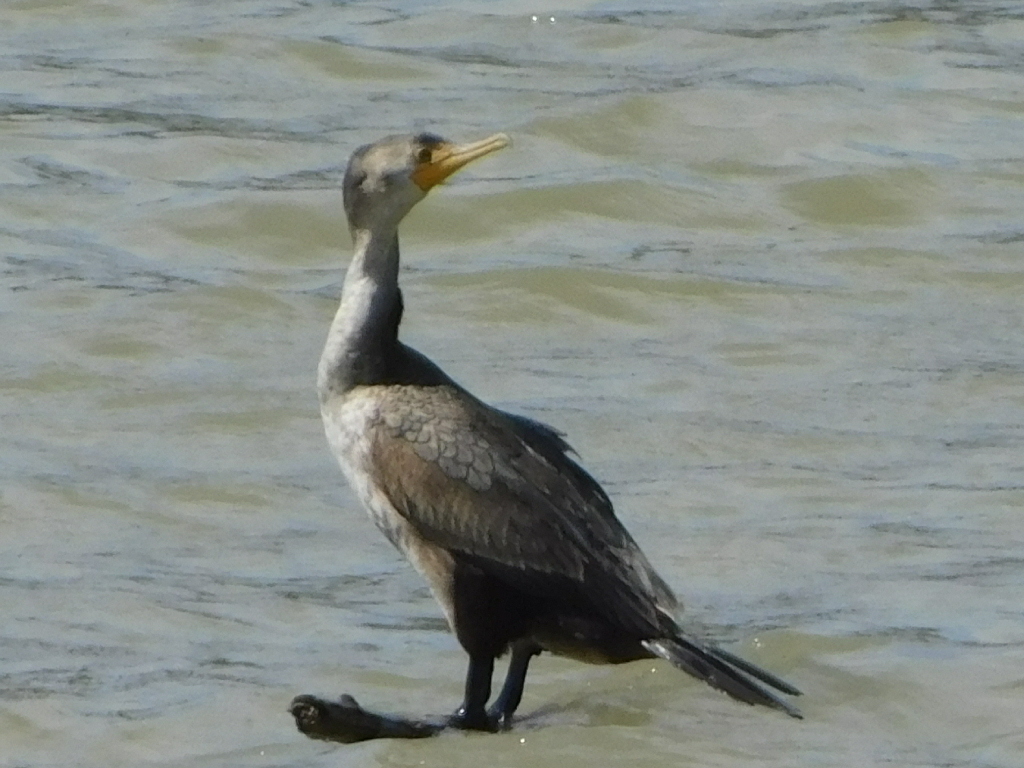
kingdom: Animalia
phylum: Chordata
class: Aves
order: Suliformes
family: Phalacrocoracidae
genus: Phalacrocorax
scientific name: Phalacrocorax auritus
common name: Double-crested cormorant
